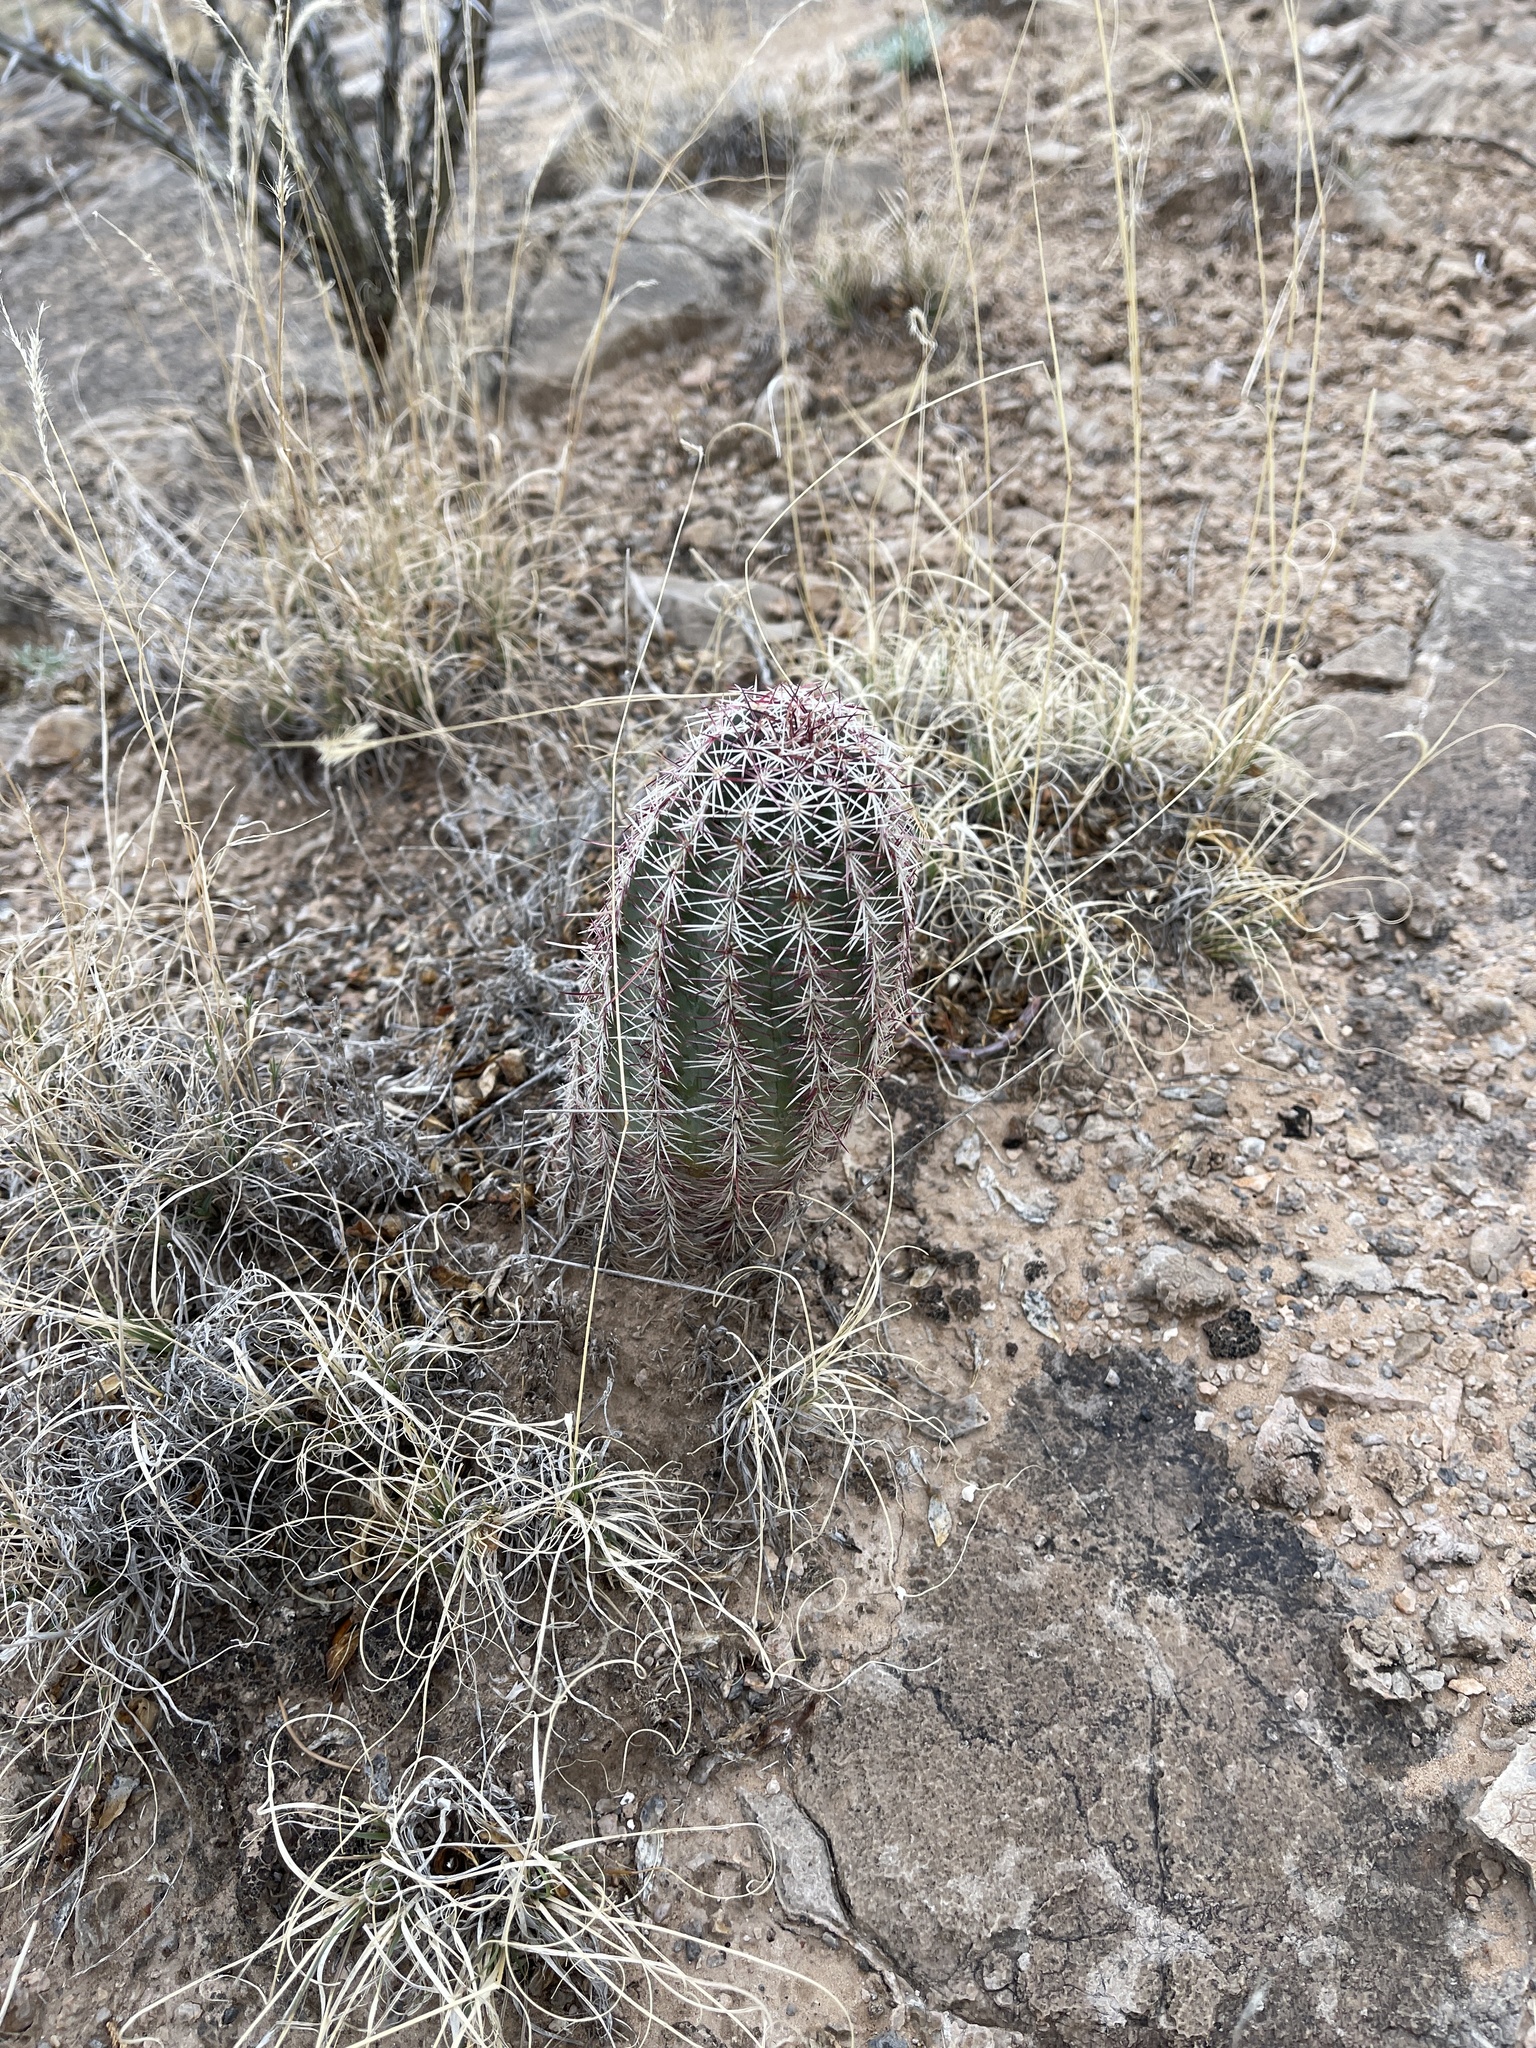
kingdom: Plantae
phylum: Tracheophyta
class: Magnoliopsida
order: Caryophyllales
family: Cactaceae
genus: Echinocereus
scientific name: Echinocereus viridiflorus
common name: Nylon hedgehog cactus
